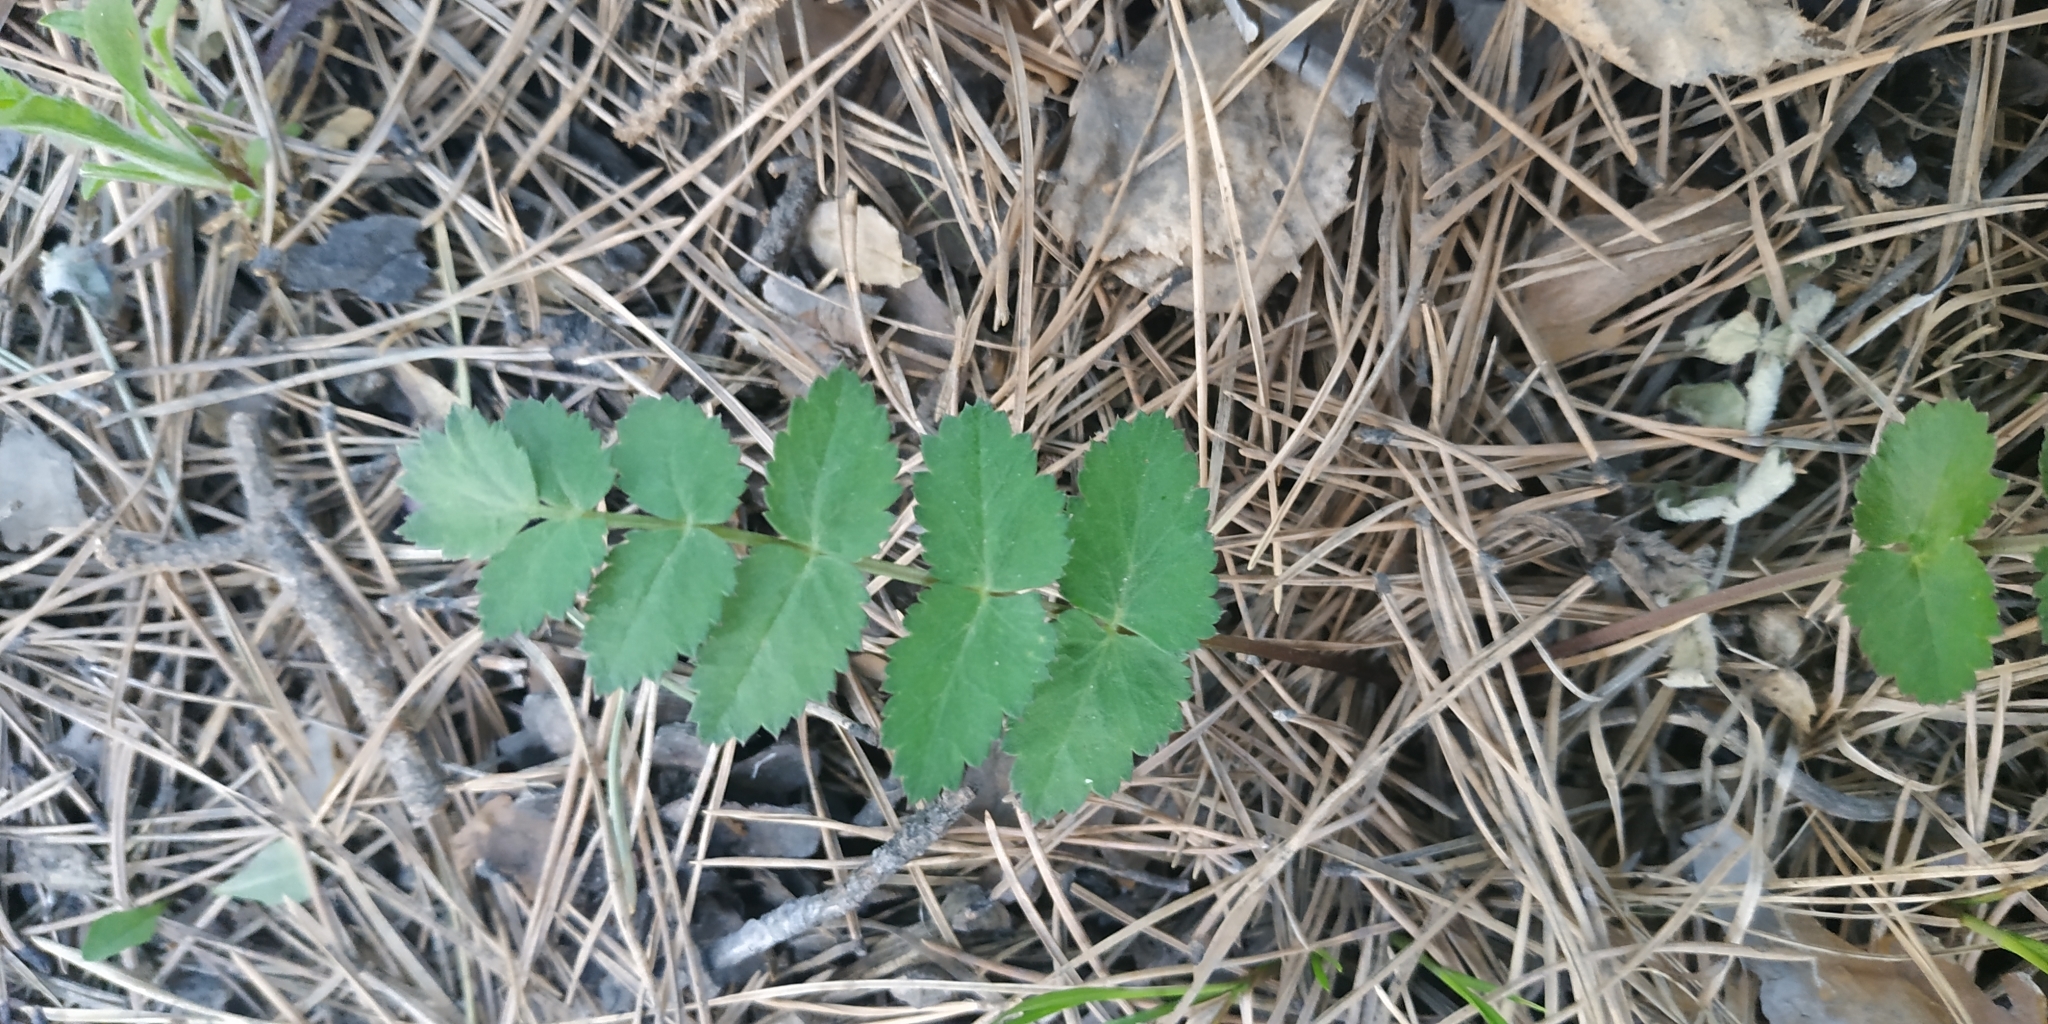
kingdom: Plantae
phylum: Tracheophyta
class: Magnoliopsida
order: Apiales
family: Apiaceae
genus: Pimpinella
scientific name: Pimpinella saxifraga
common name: Burnet-saxifrage
